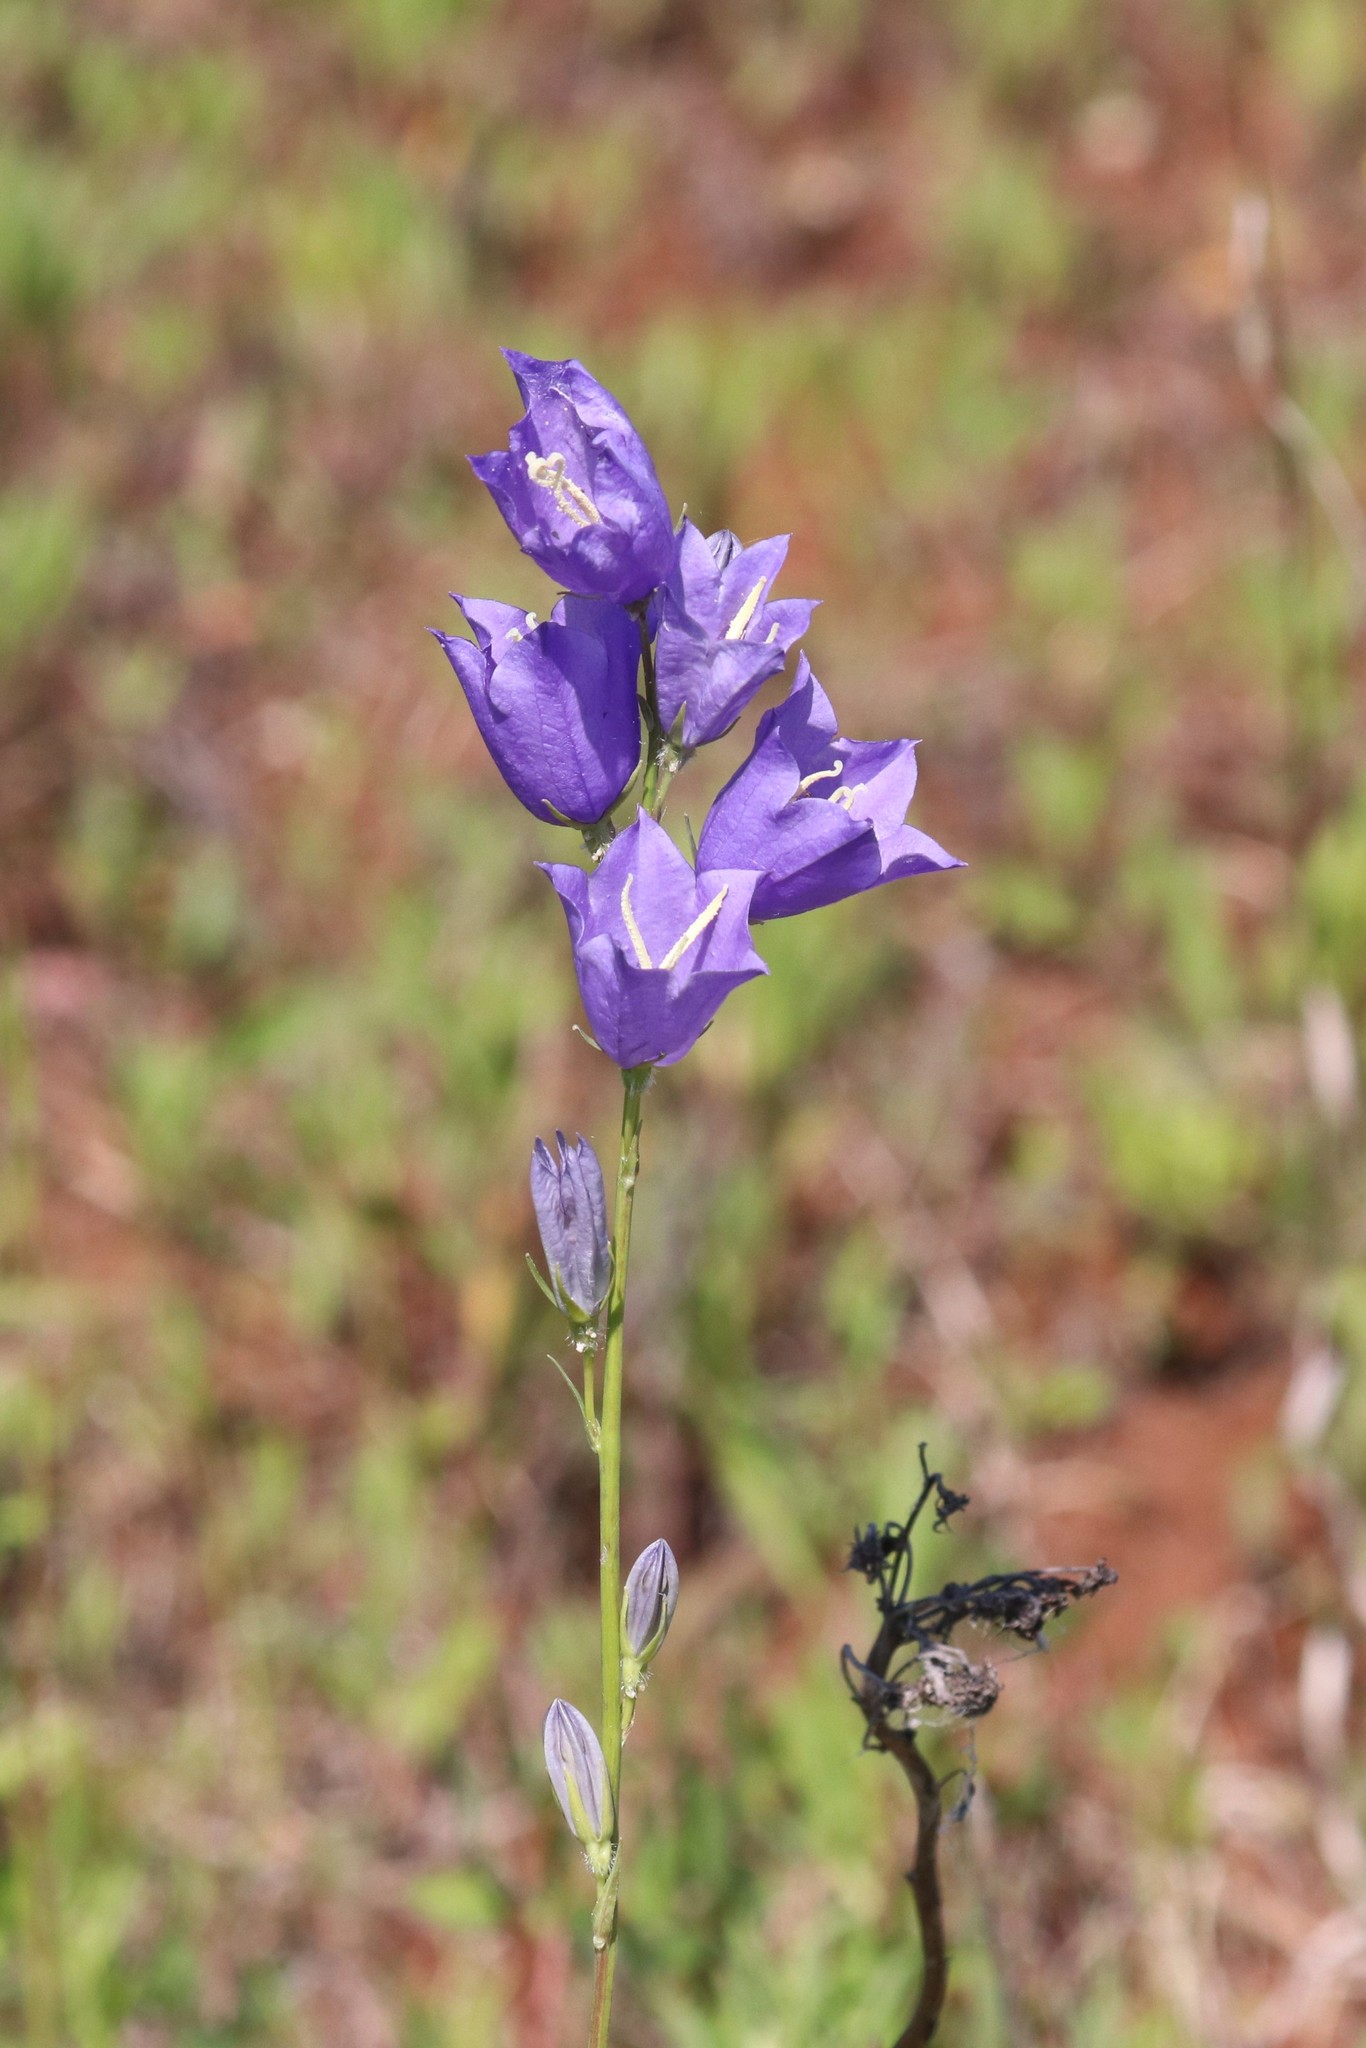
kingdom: Plantae
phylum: Tracheophyta
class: Magnoliopsida
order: Asterales
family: Campanulaceae
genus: Campanula
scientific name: Campanula persicifolia
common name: Peach-leaved bellflower
